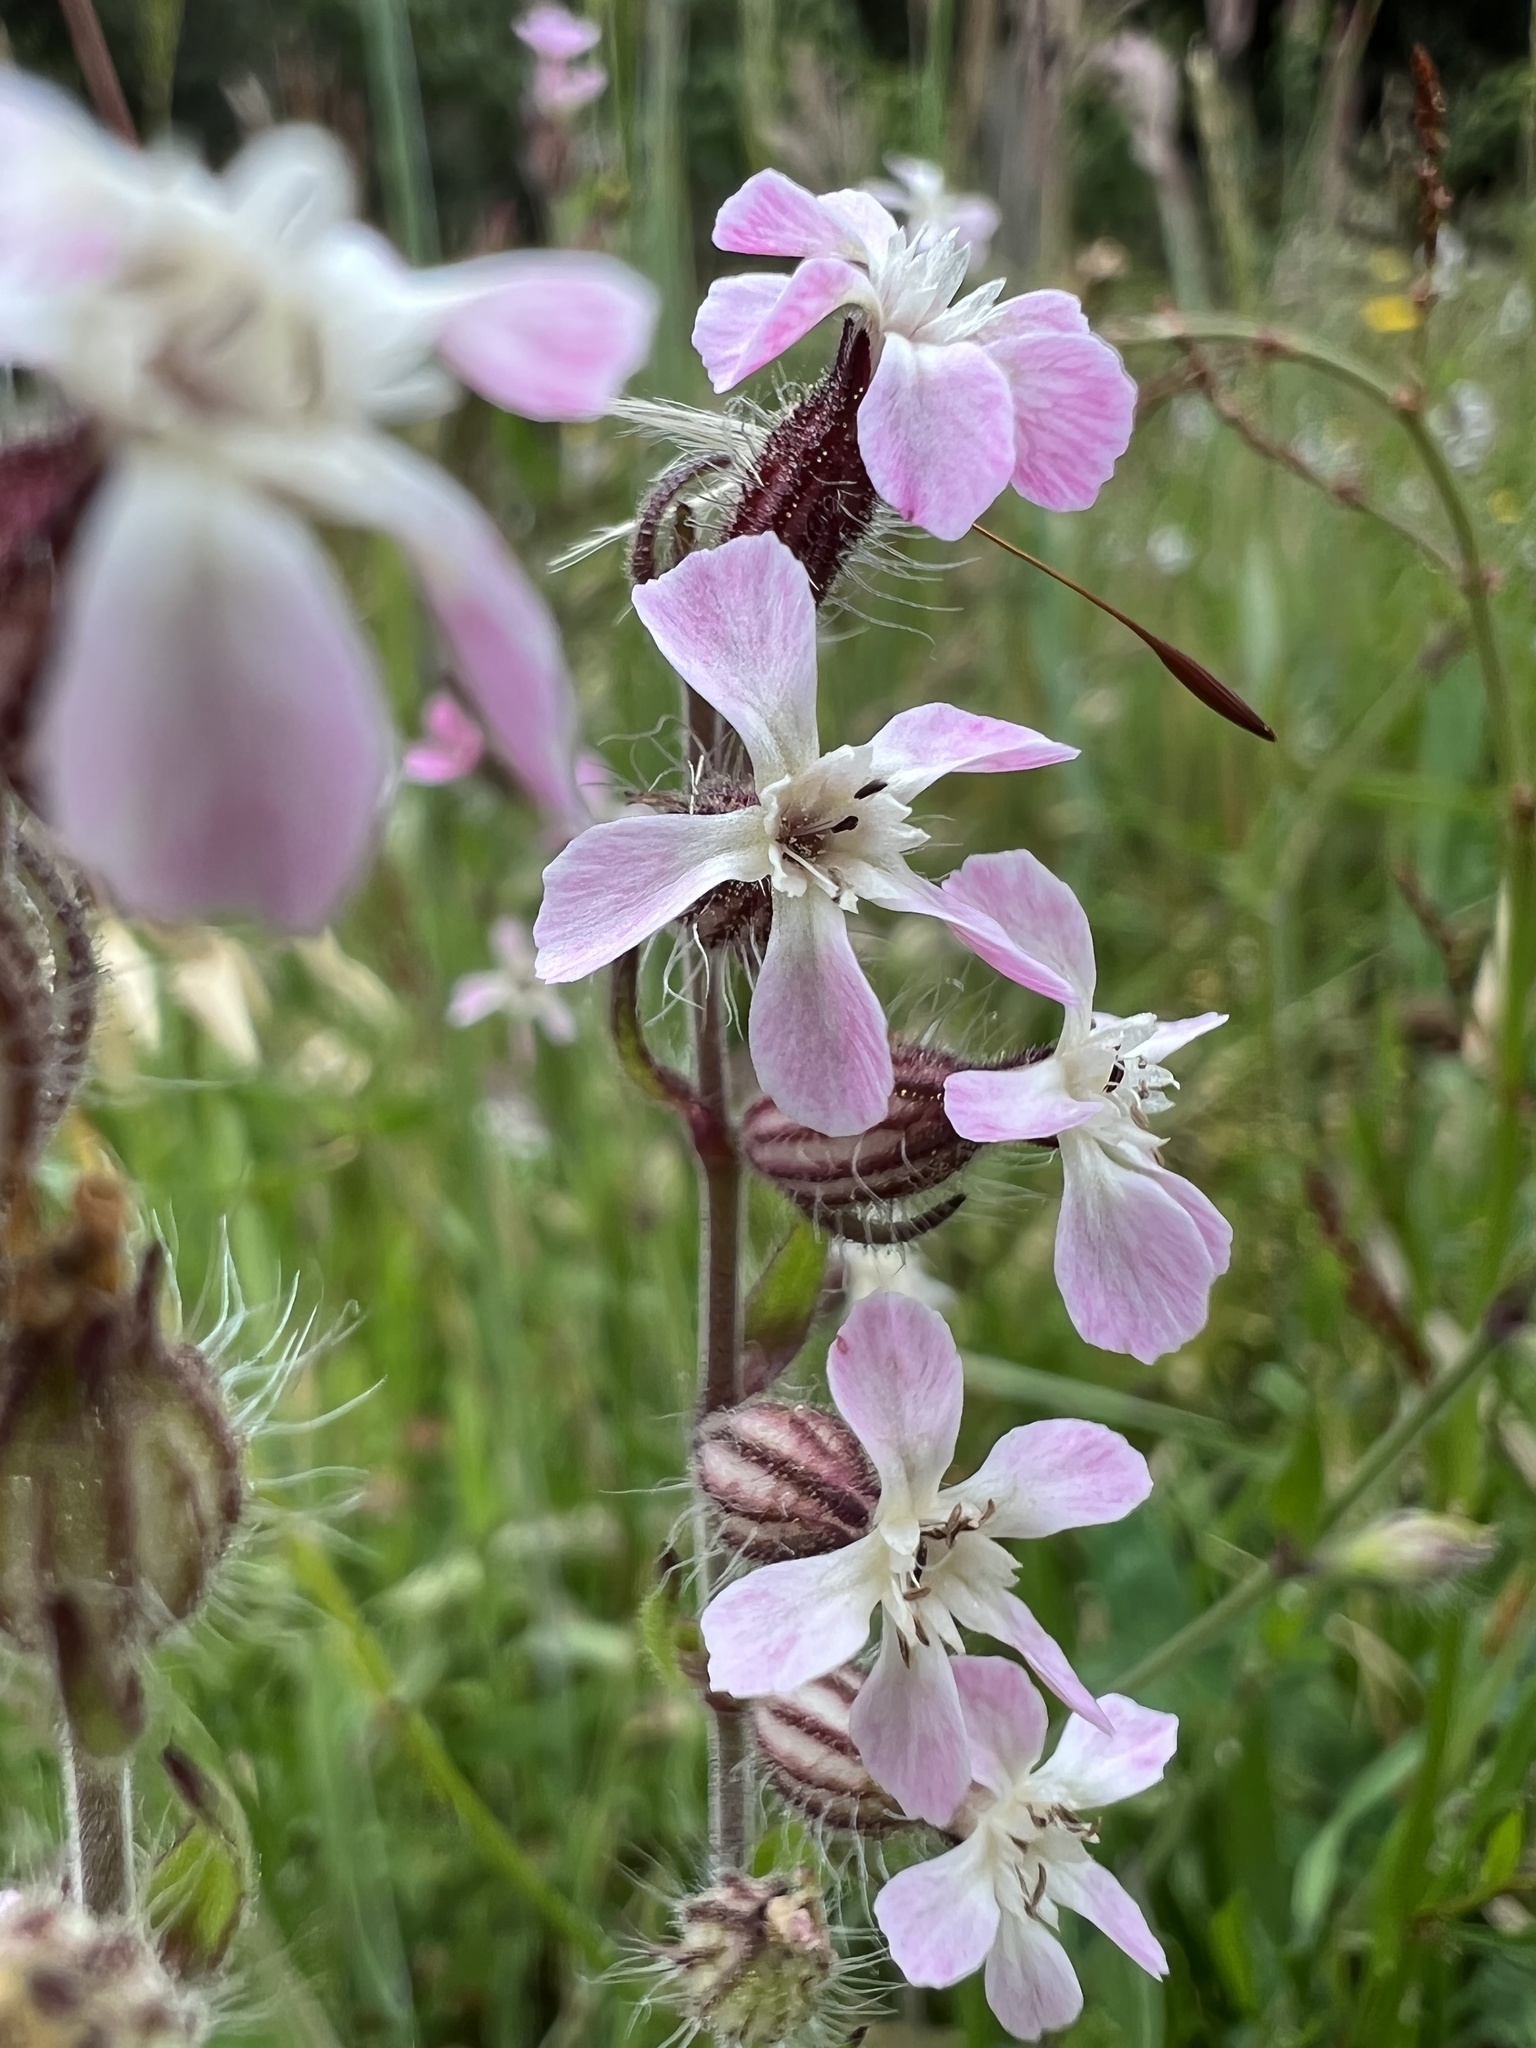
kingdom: Plantae
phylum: Tracheophyta
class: Magnoliopsida
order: Caryophyllales
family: Caryophyllaceae
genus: Silene
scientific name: Silene gallica
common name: Small-flowered catchfly
